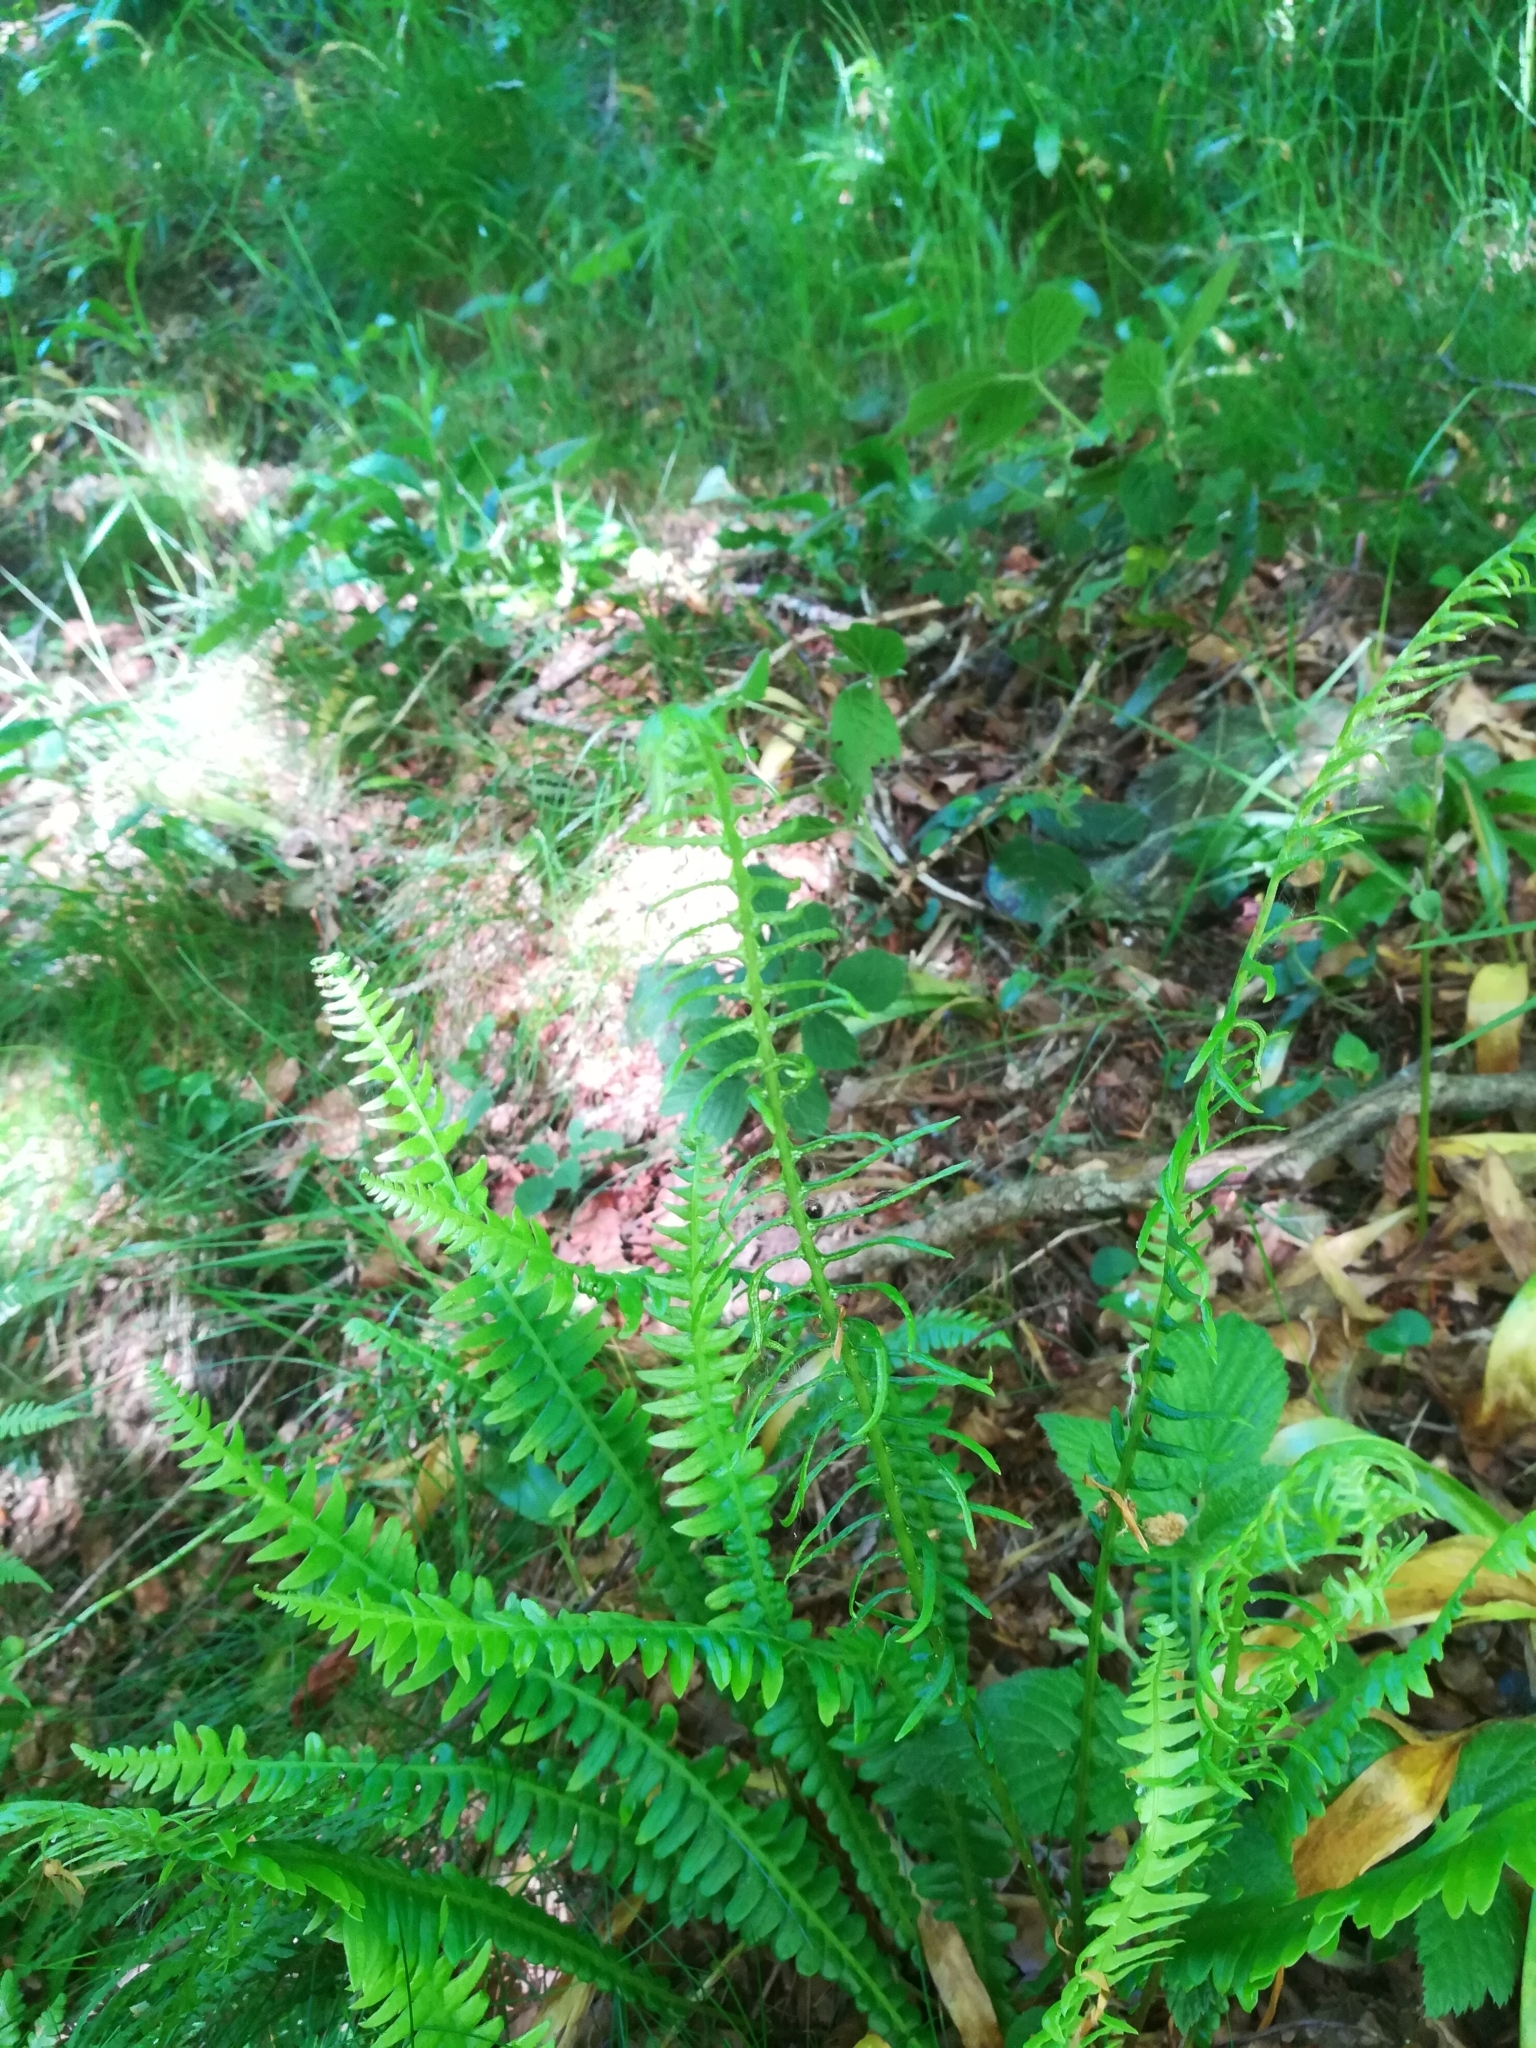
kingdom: Plantae
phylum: Tracheophyta
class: Polypodiopsida
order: Polypodiales
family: Blechnaceae
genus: Struthiopteris
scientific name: Struthiopteris spicant
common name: Deer fern
